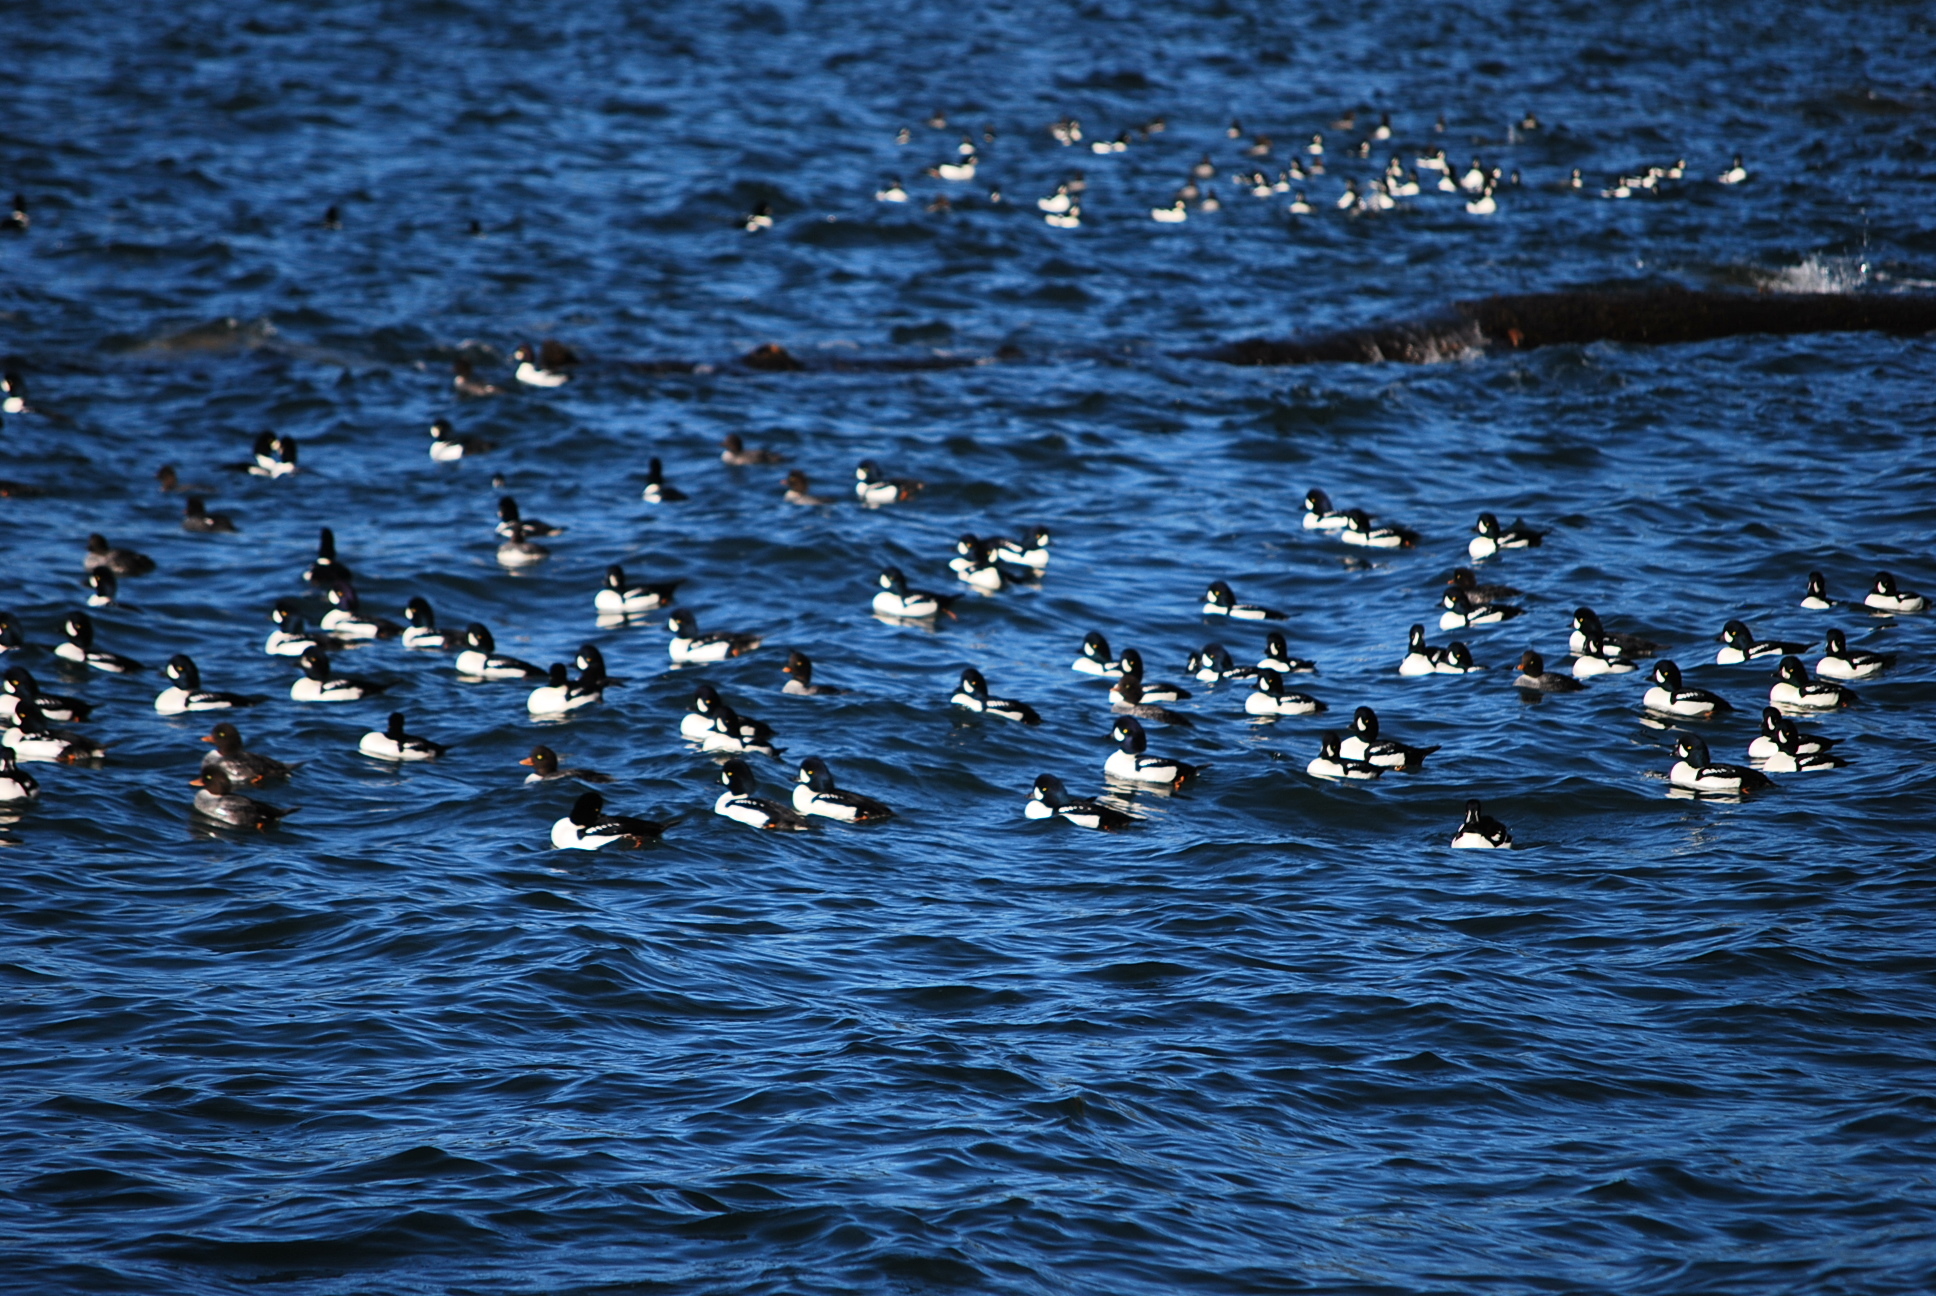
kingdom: Animalia
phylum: Chordata
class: Aves
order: Anseriformes
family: Anatidae
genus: Bucephala
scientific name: Bucephala islandica
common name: Barrow's goldeneye
